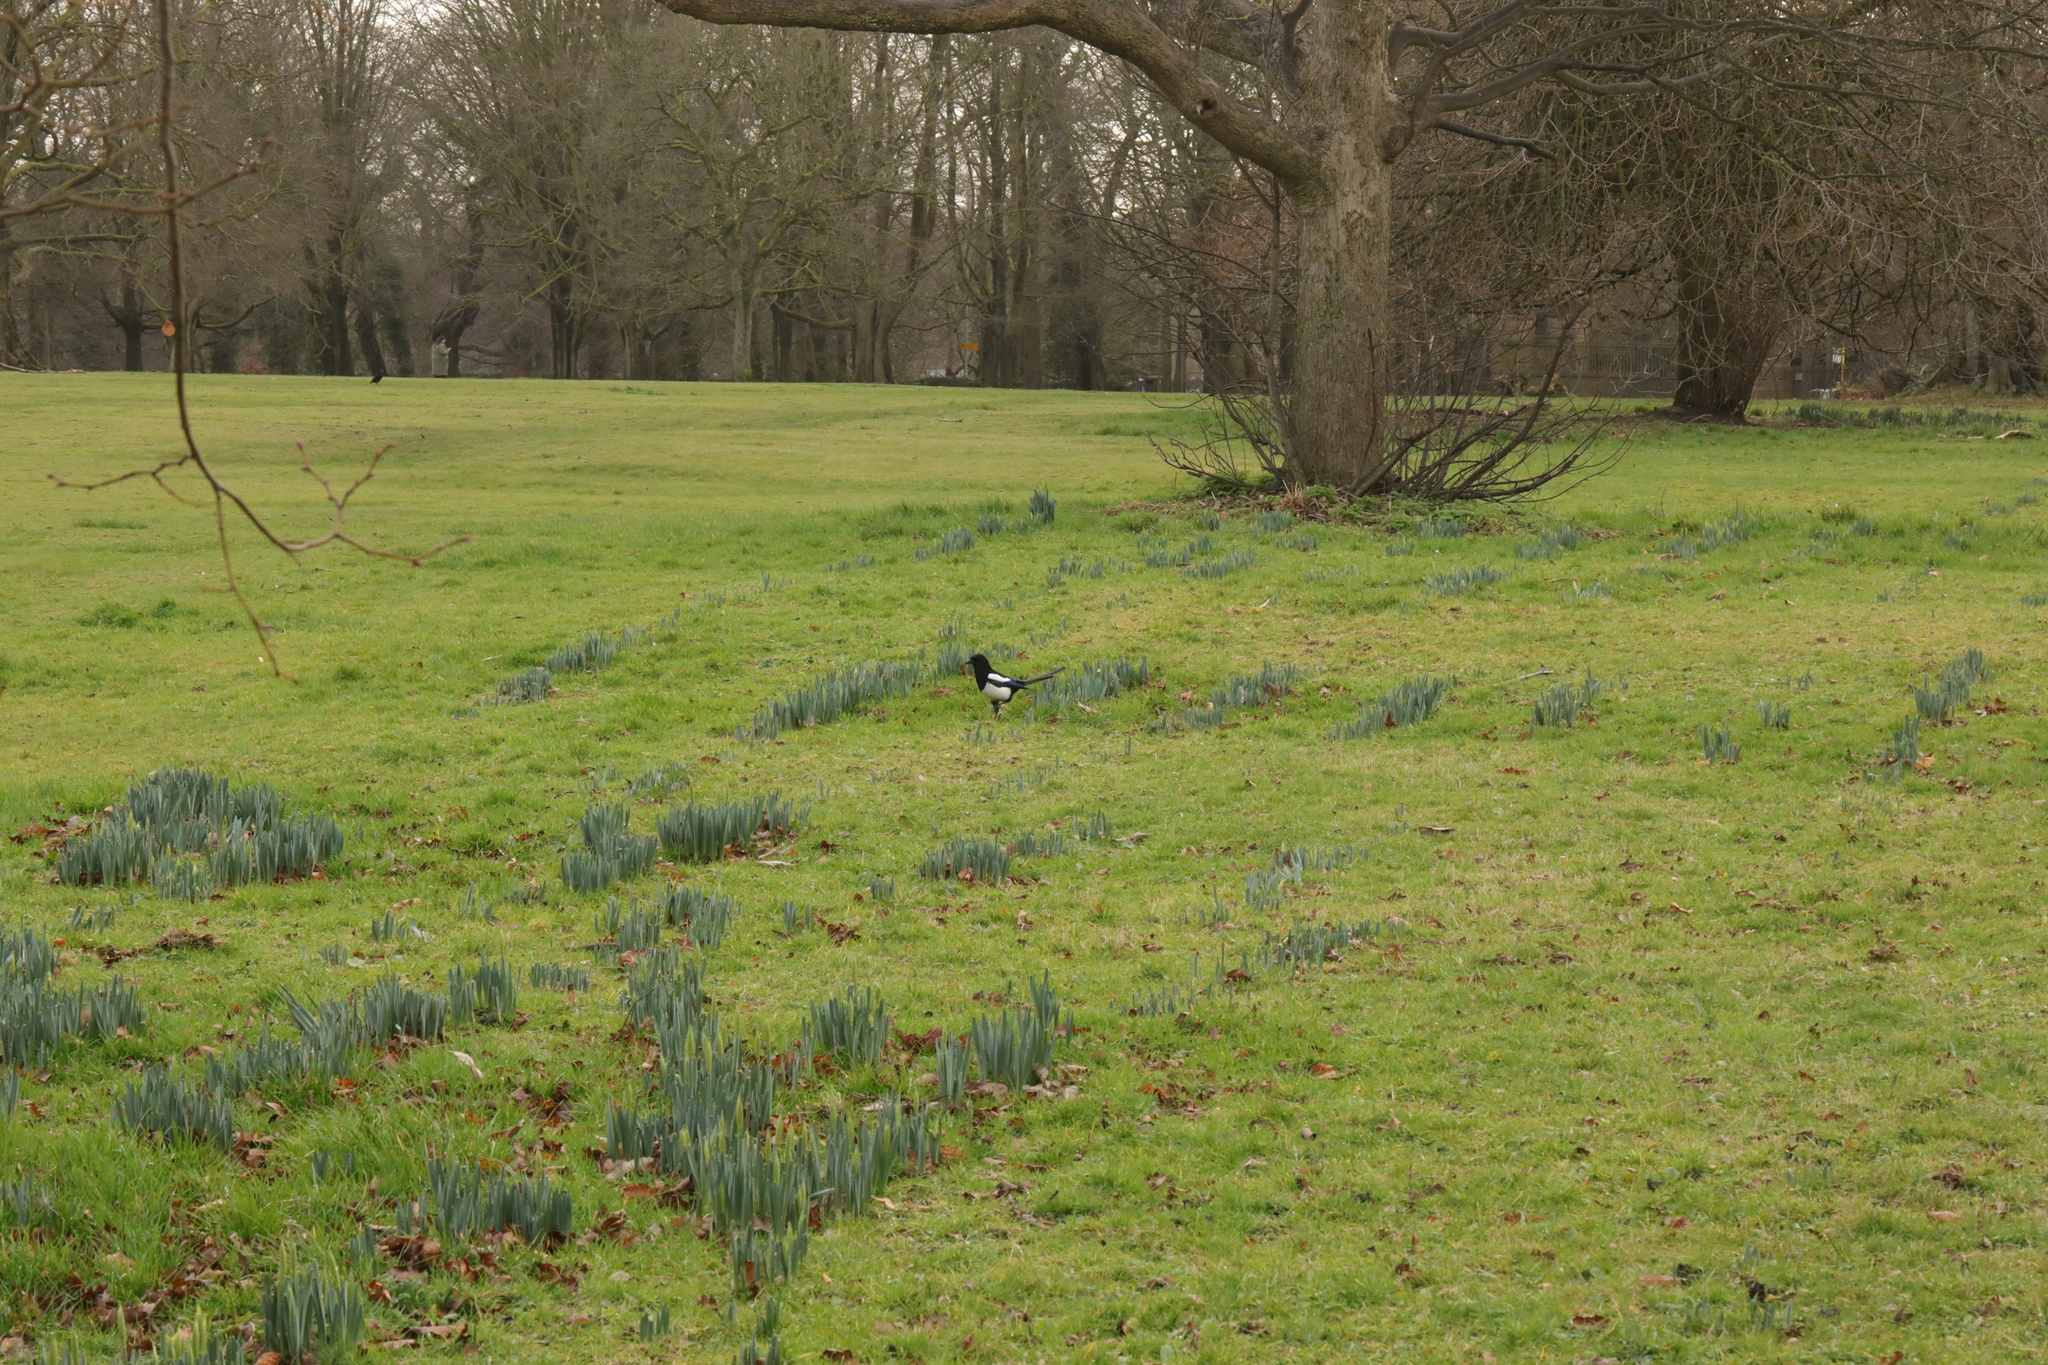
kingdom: Animalia
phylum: Chordata
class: Aves
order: Passeriformes
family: Corvidae
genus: Pica
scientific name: Pica pica
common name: Eurasian magpie
